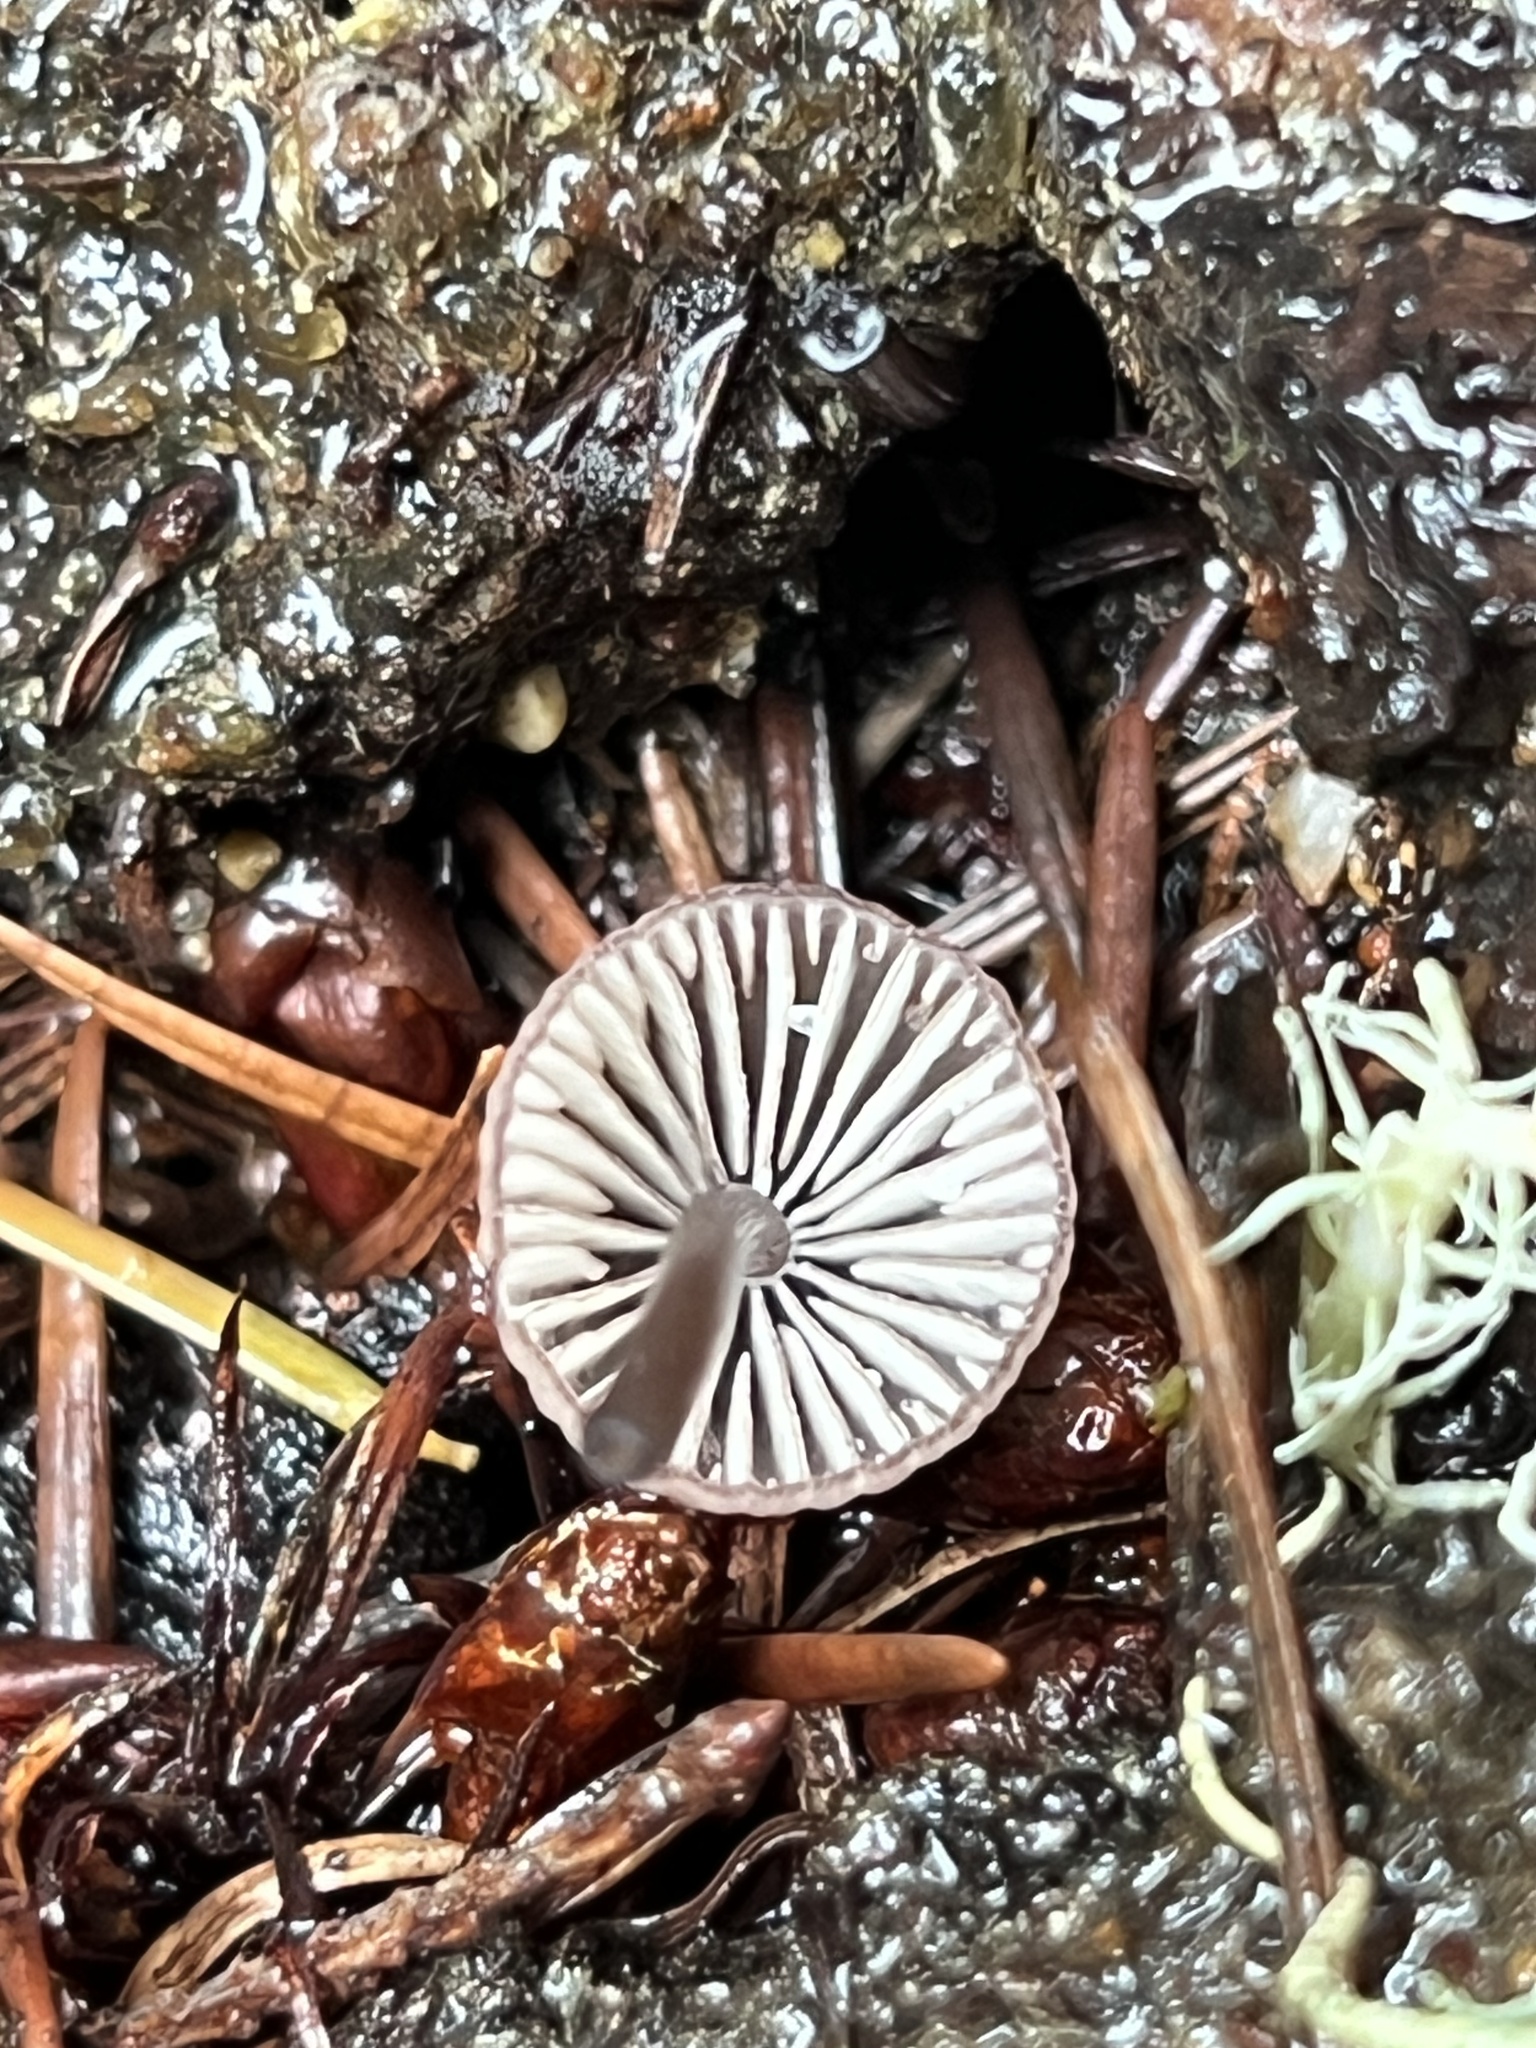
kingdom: Fungi
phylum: Basidiomycota
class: Agaricomycetes
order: Agaricales
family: Mycenaceae
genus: Mycena
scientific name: Mycena purpureofusca
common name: Purple edge bonnet
